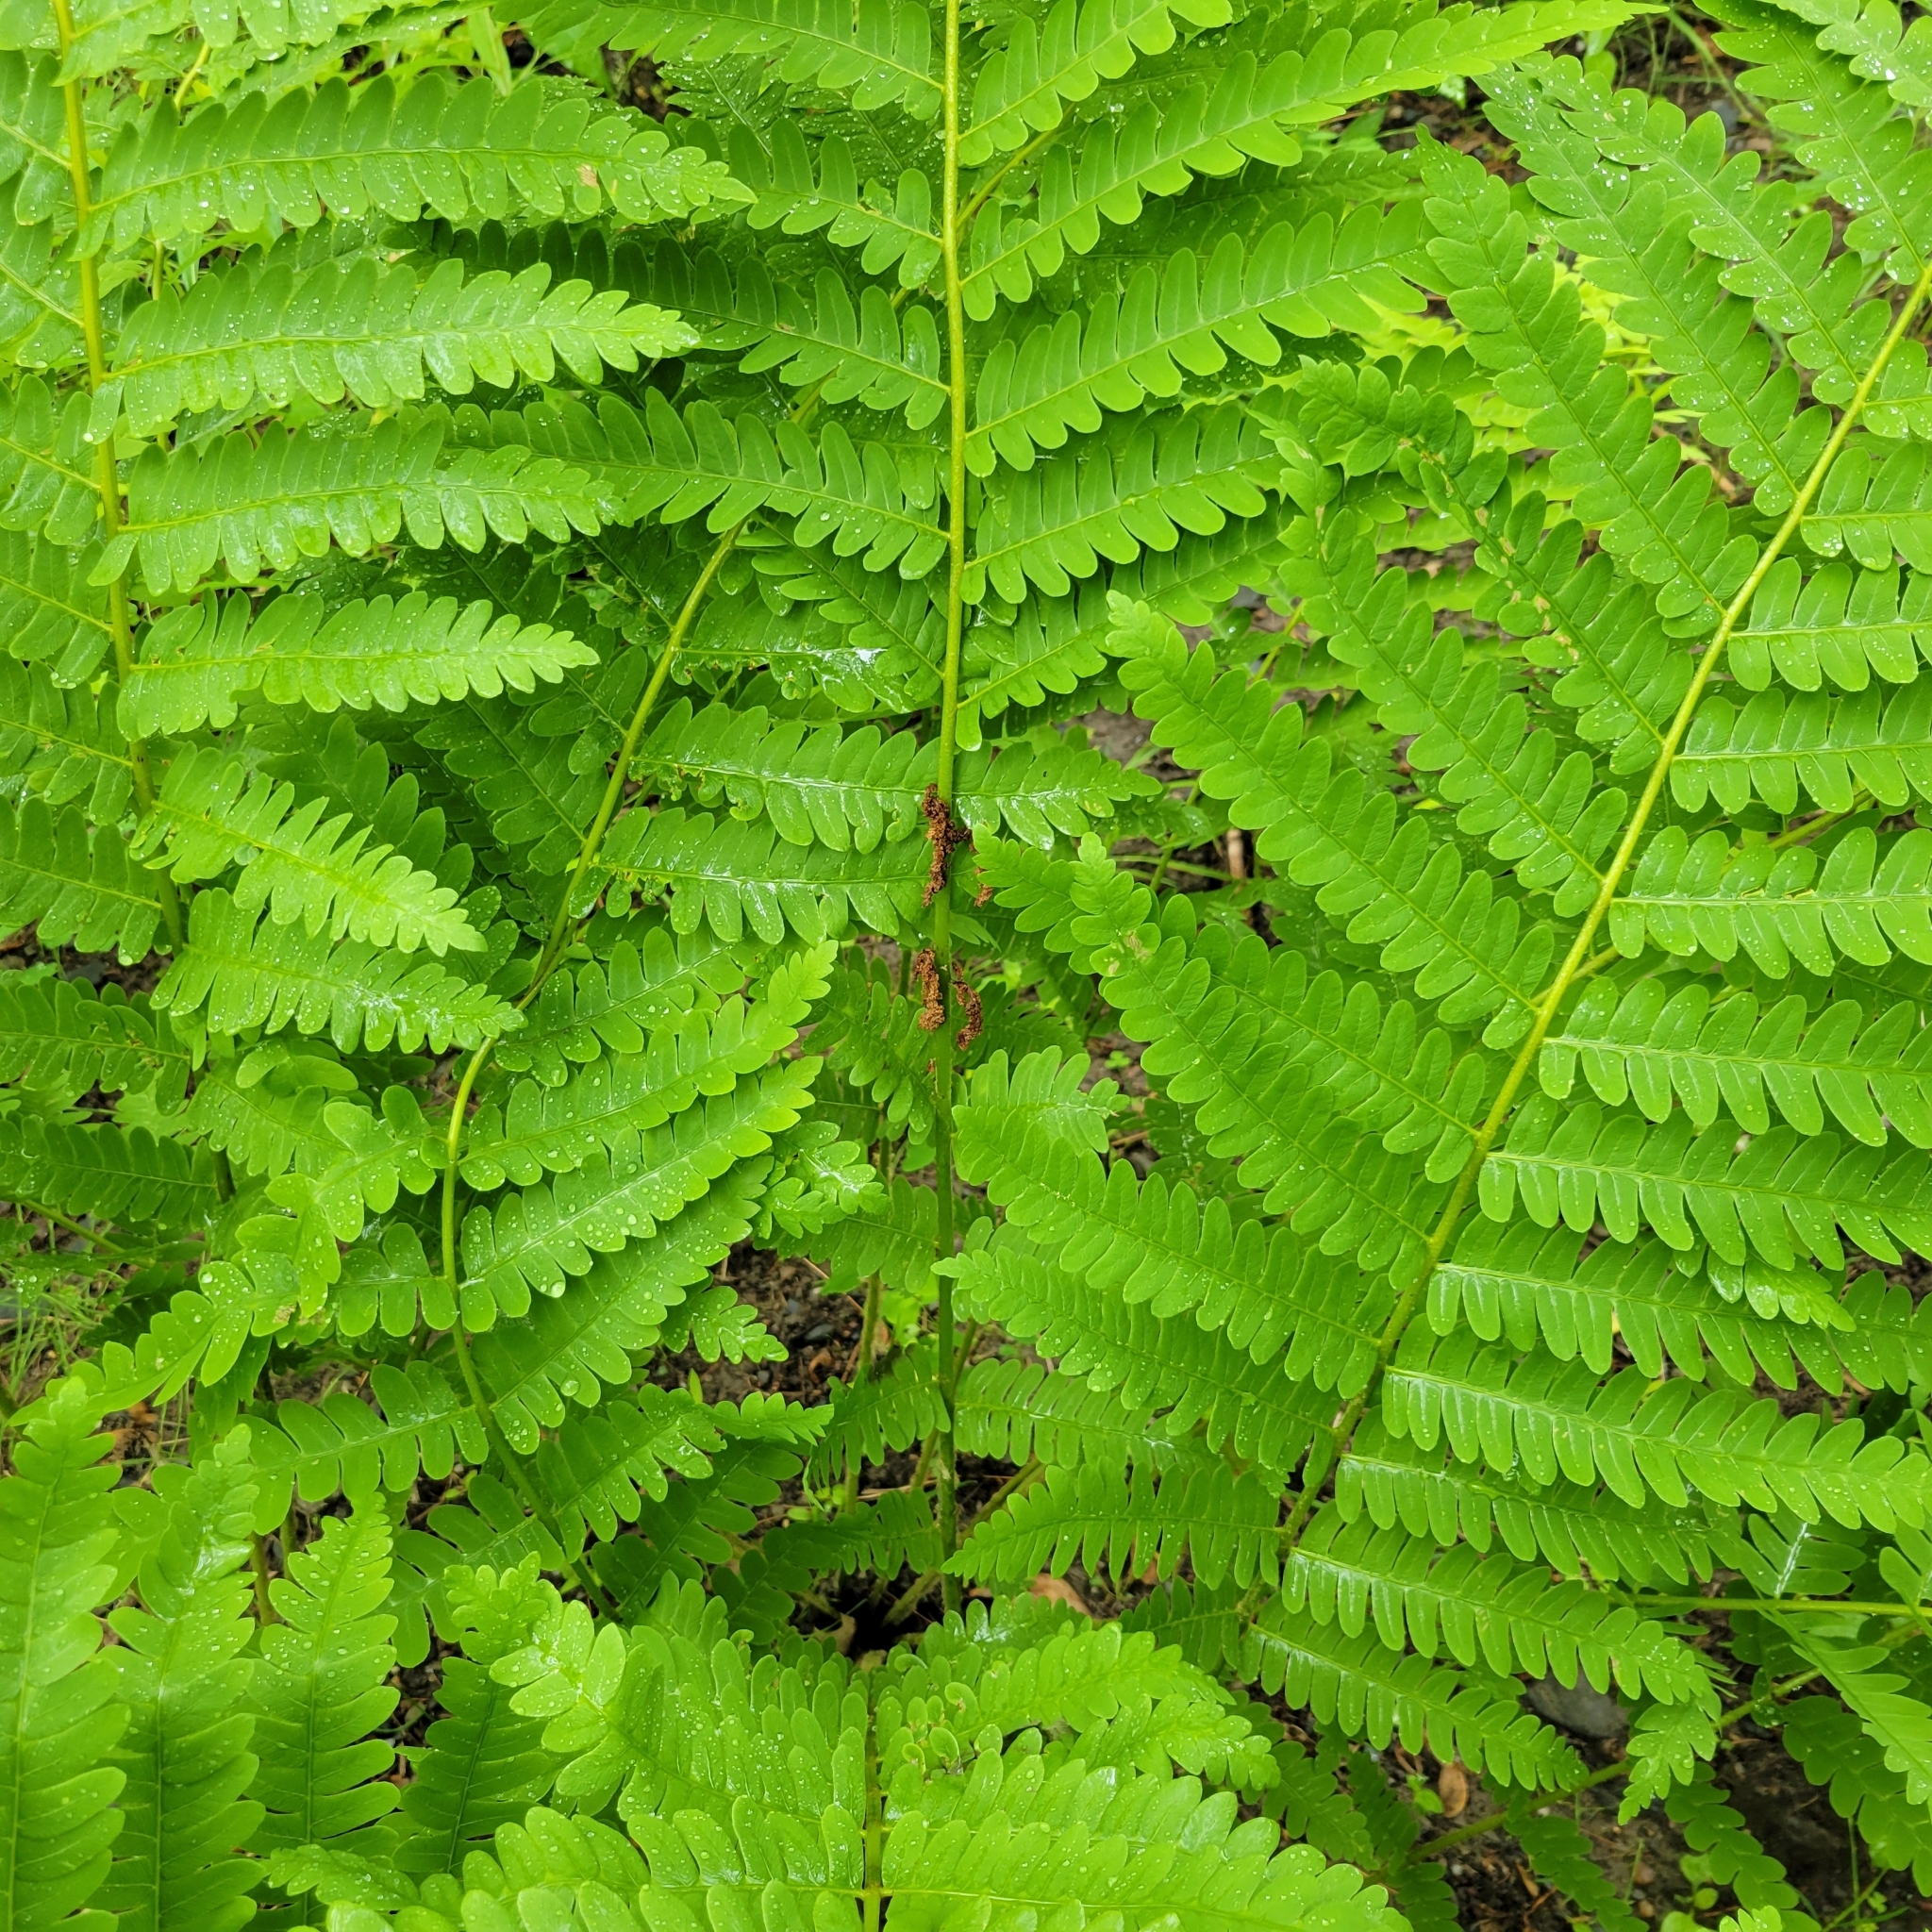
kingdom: Plantae
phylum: Tracheophyta
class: Polypodiopsida
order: Osmundales
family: Osmundaceae
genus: Claytosmunda
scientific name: Claytosmunda claytoniana
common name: Clayton's fern
